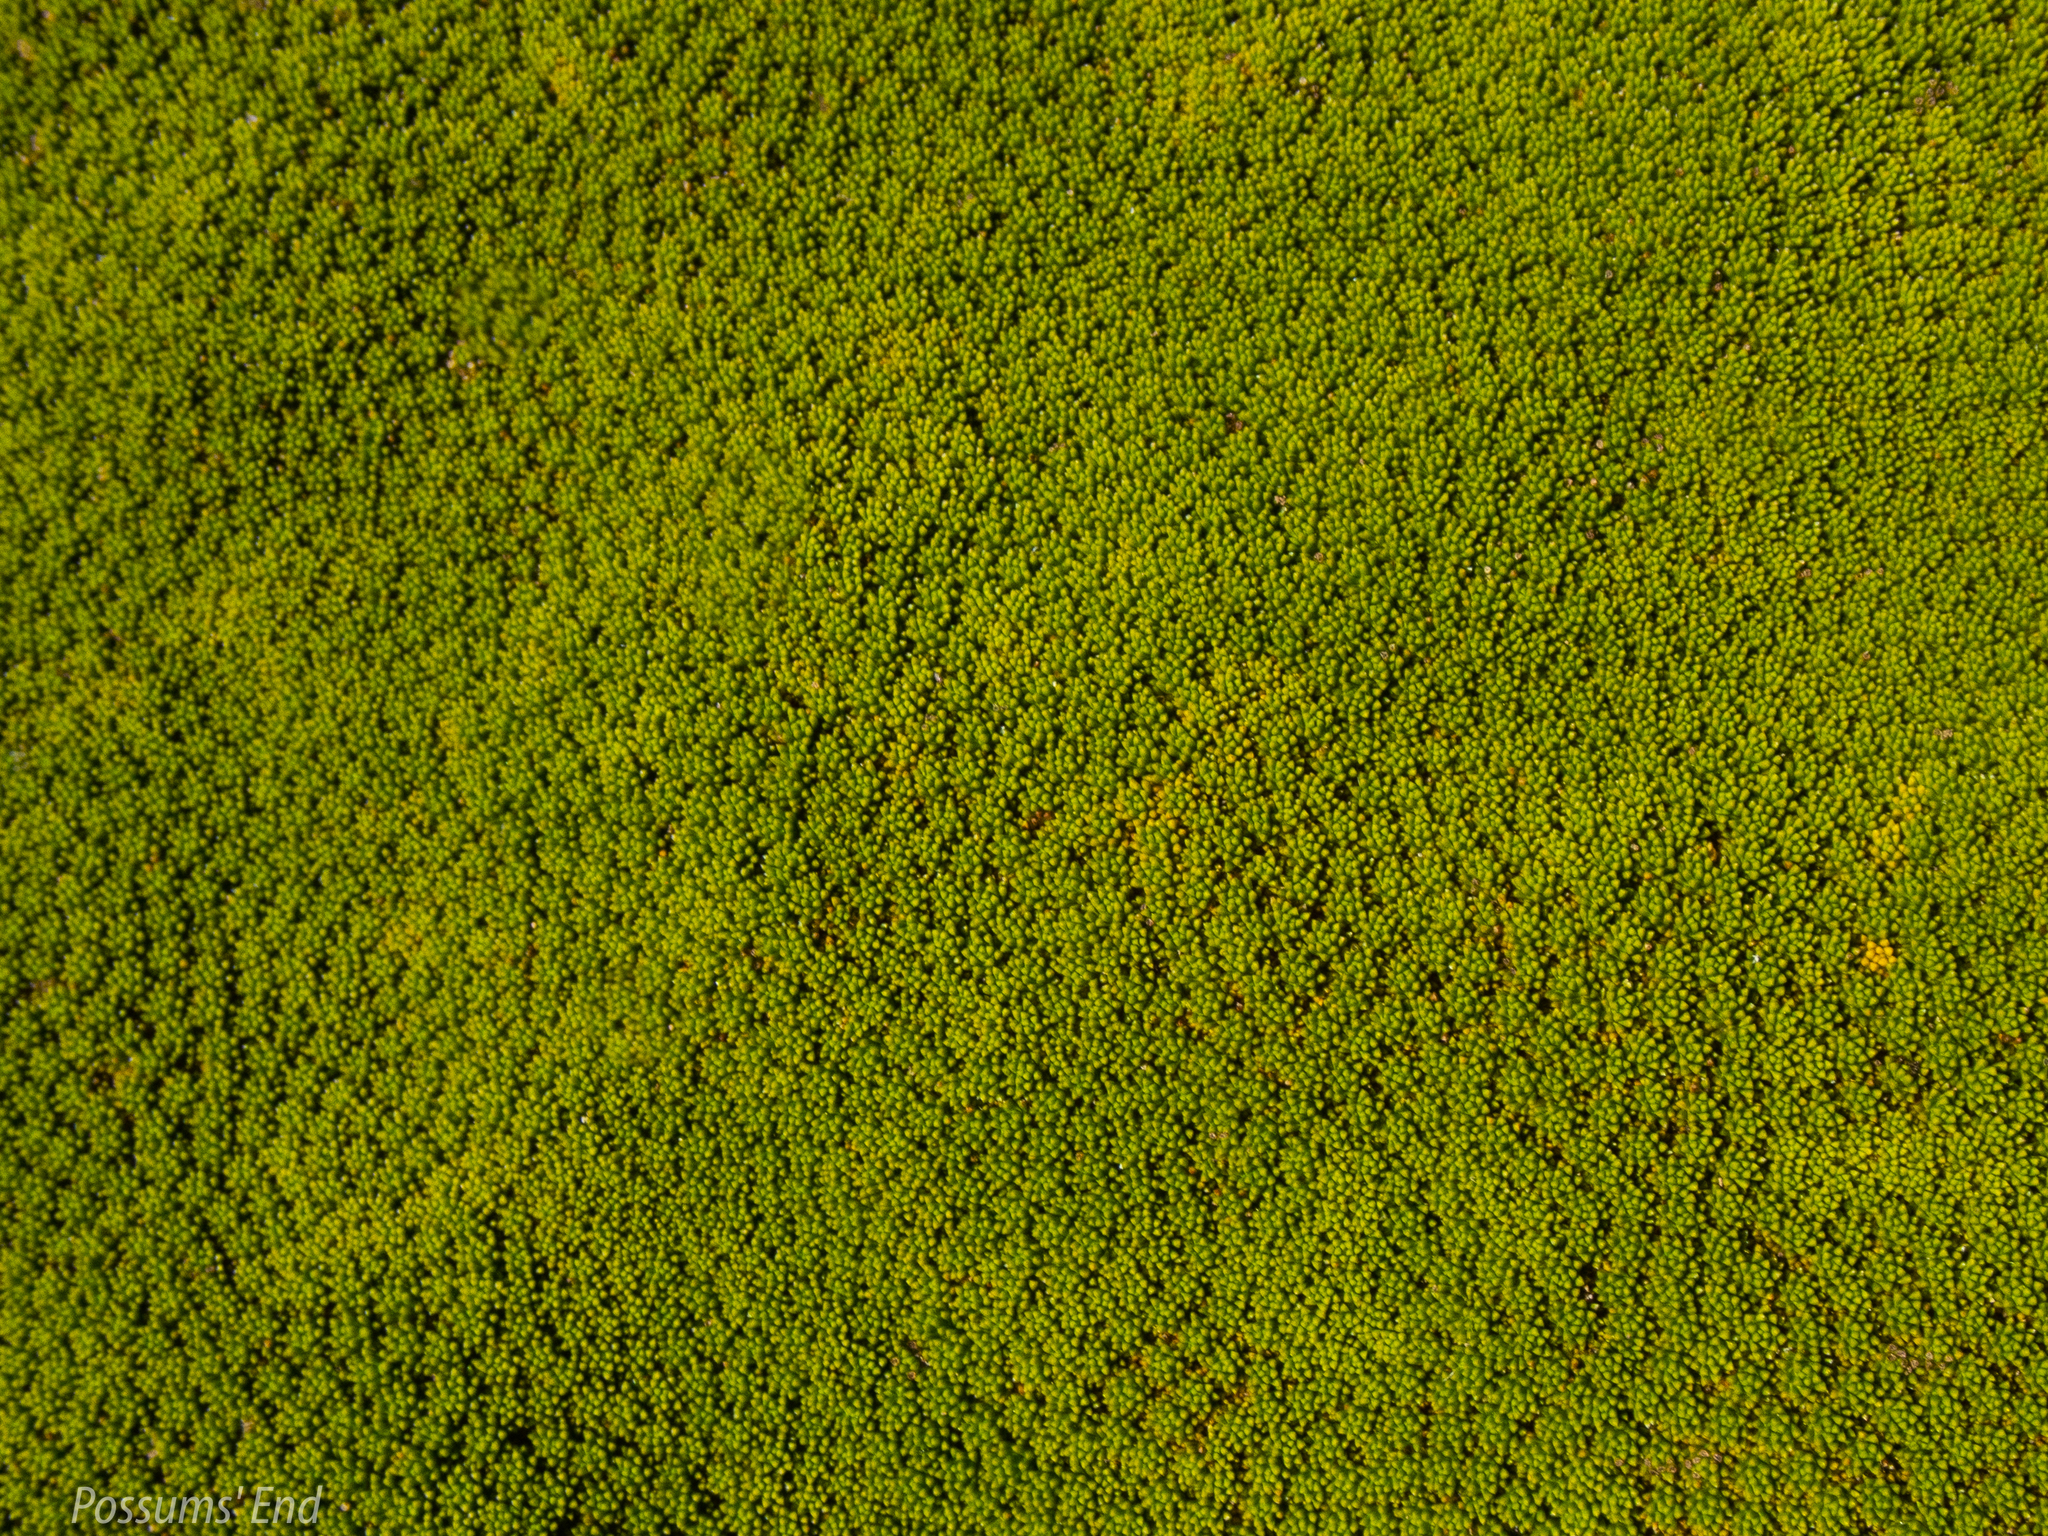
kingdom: Plantae
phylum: Tracheophyta
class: Magnoliopsida
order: Asterales
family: Stylidiaceae
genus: Phyllachne
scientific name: Phyllachne colensoi
